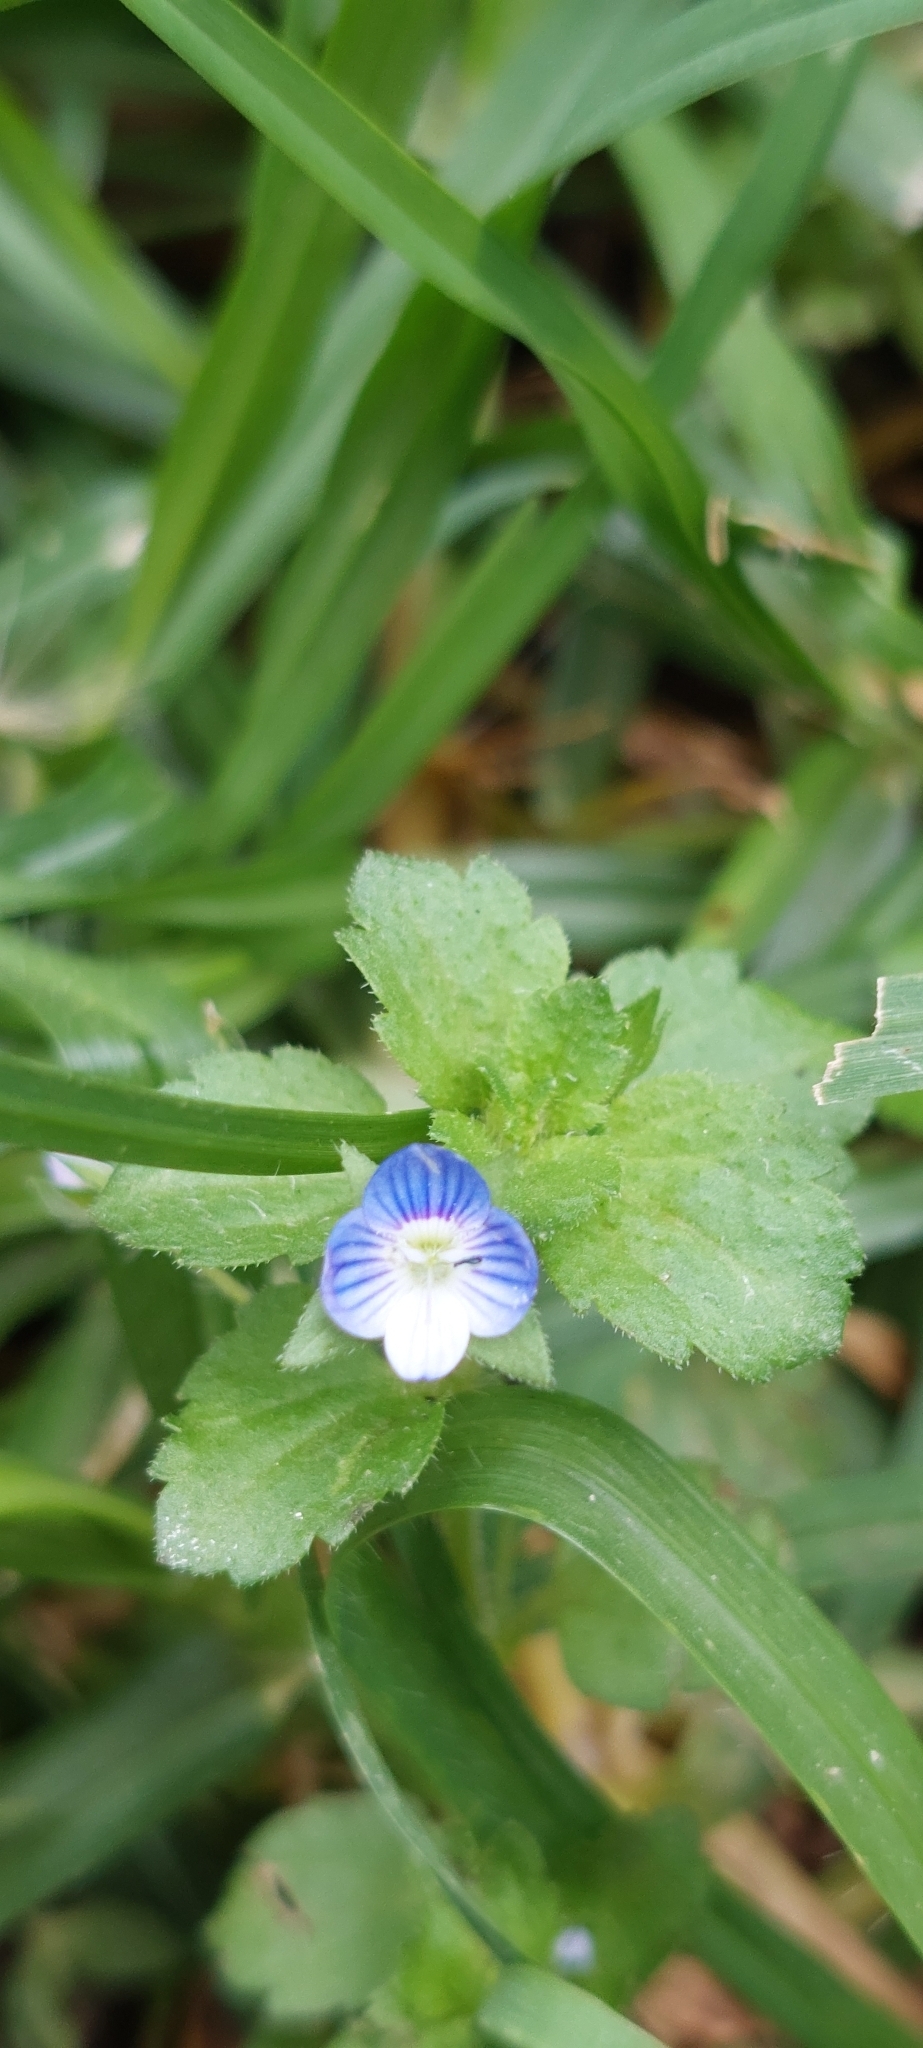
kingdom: Plantae
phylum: Tracheophyta
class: Magnoliopsida
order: Lamiales
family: Plantaginaceae
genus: Veronica
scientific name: Veronica persica
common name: Common field-speedwell
